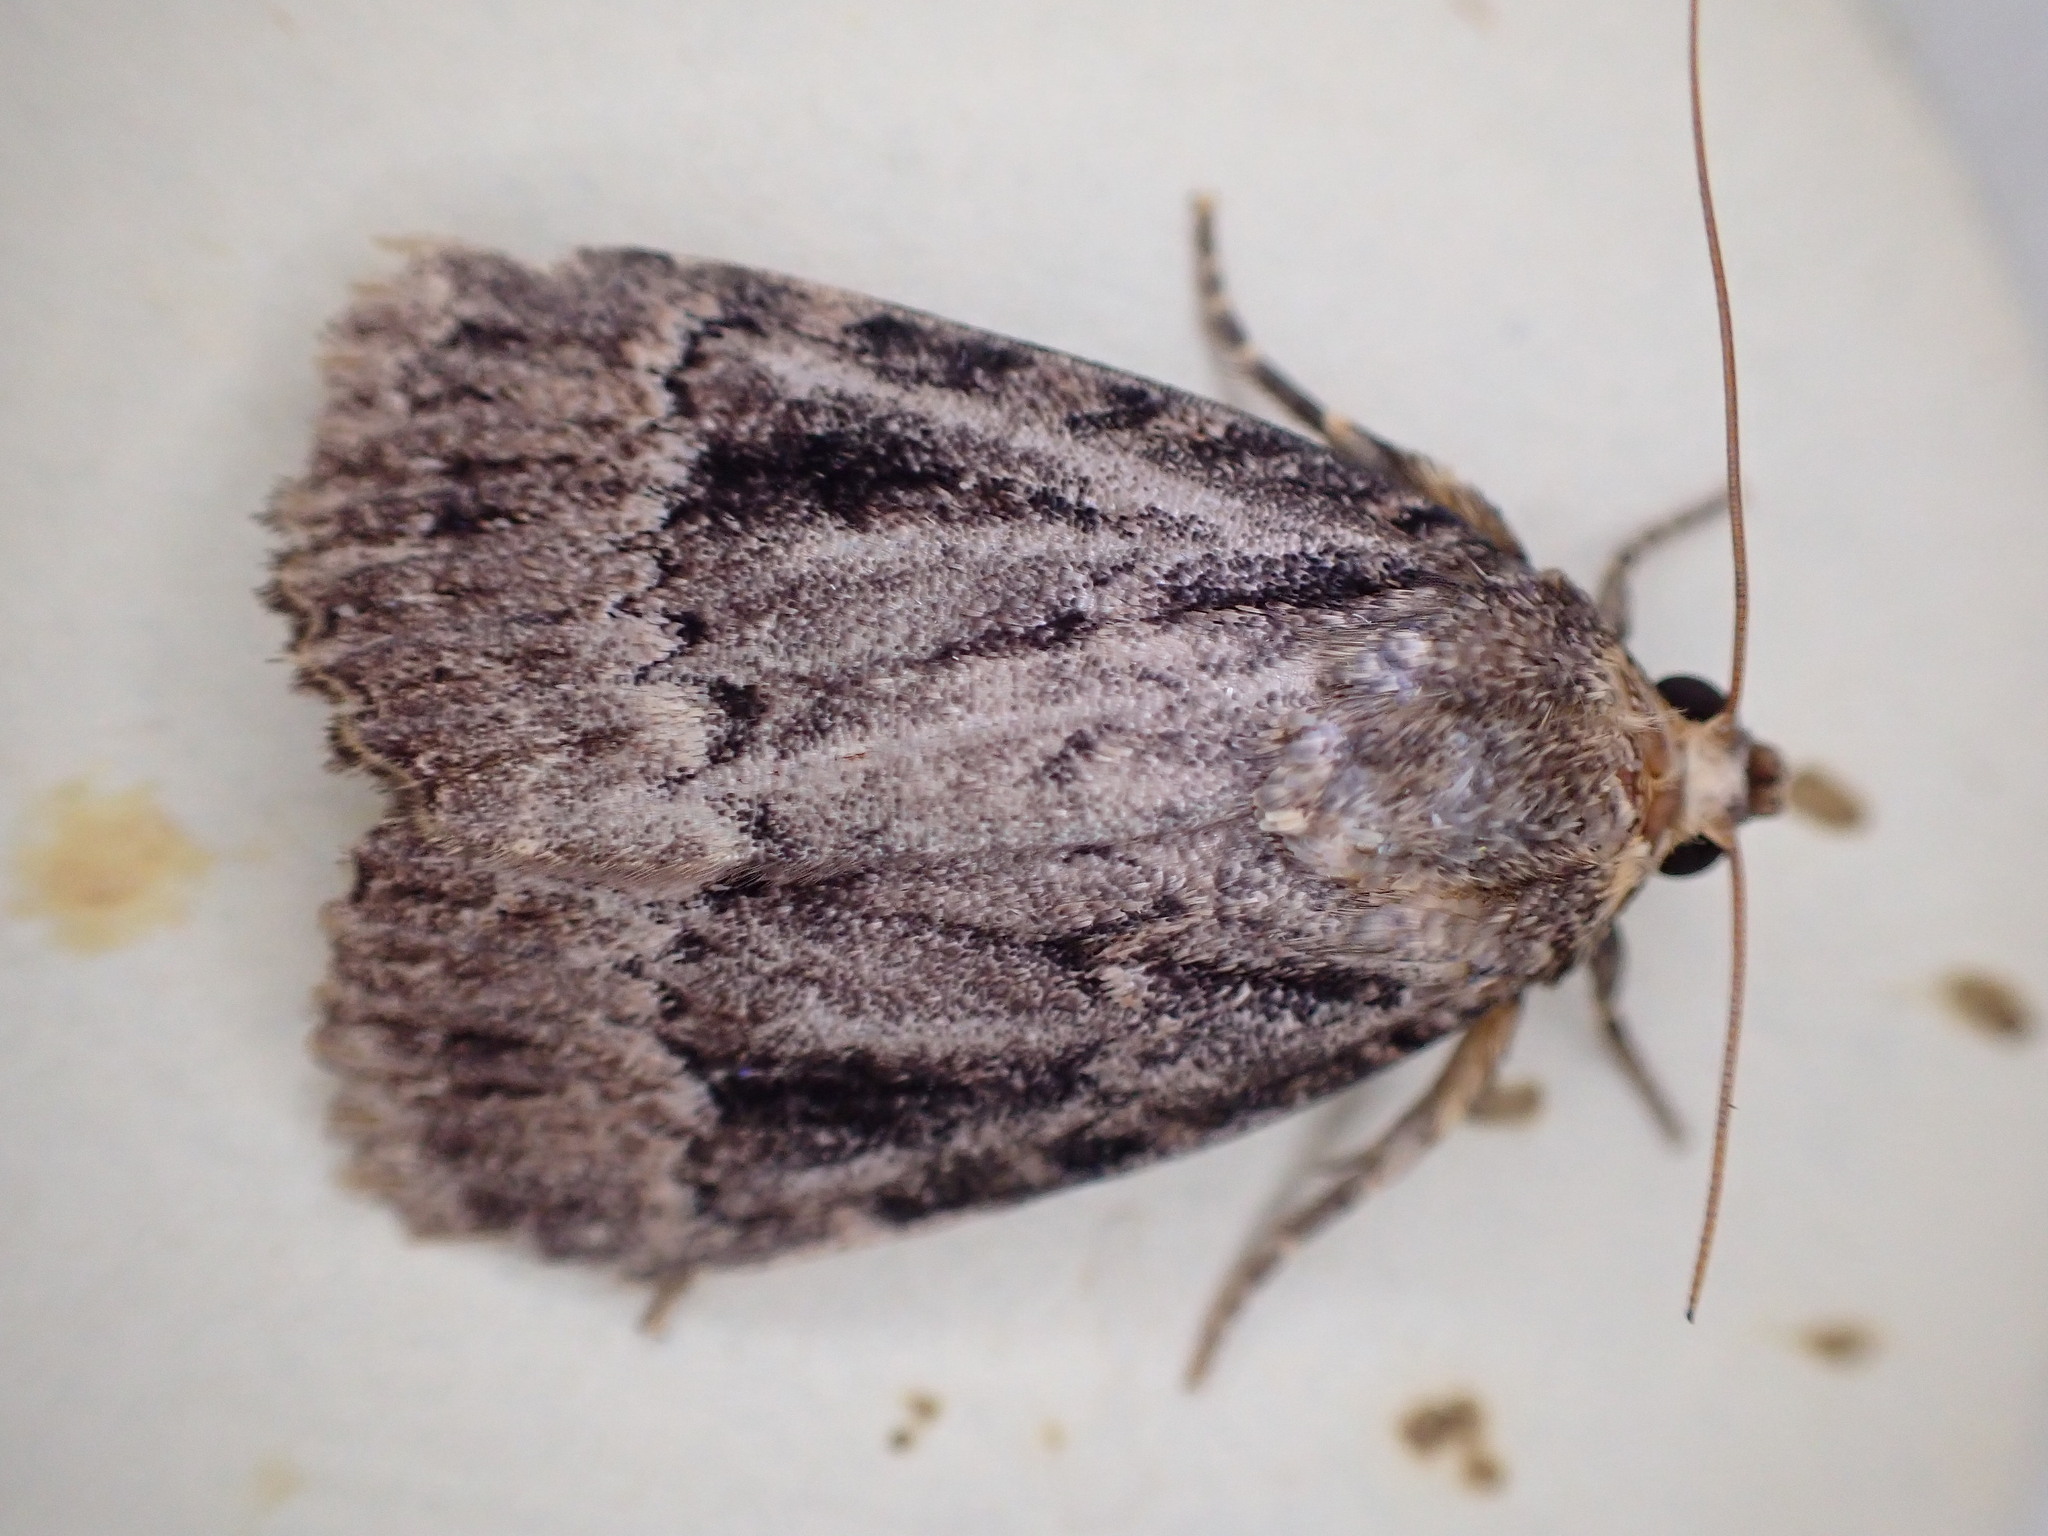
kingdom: Animalia
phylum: Arthropoda
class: Insecta
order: Lepidoptera
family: Noctuidae
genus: Amphipyra
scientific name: Amphipyra pyramidea
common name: Copper underwing
